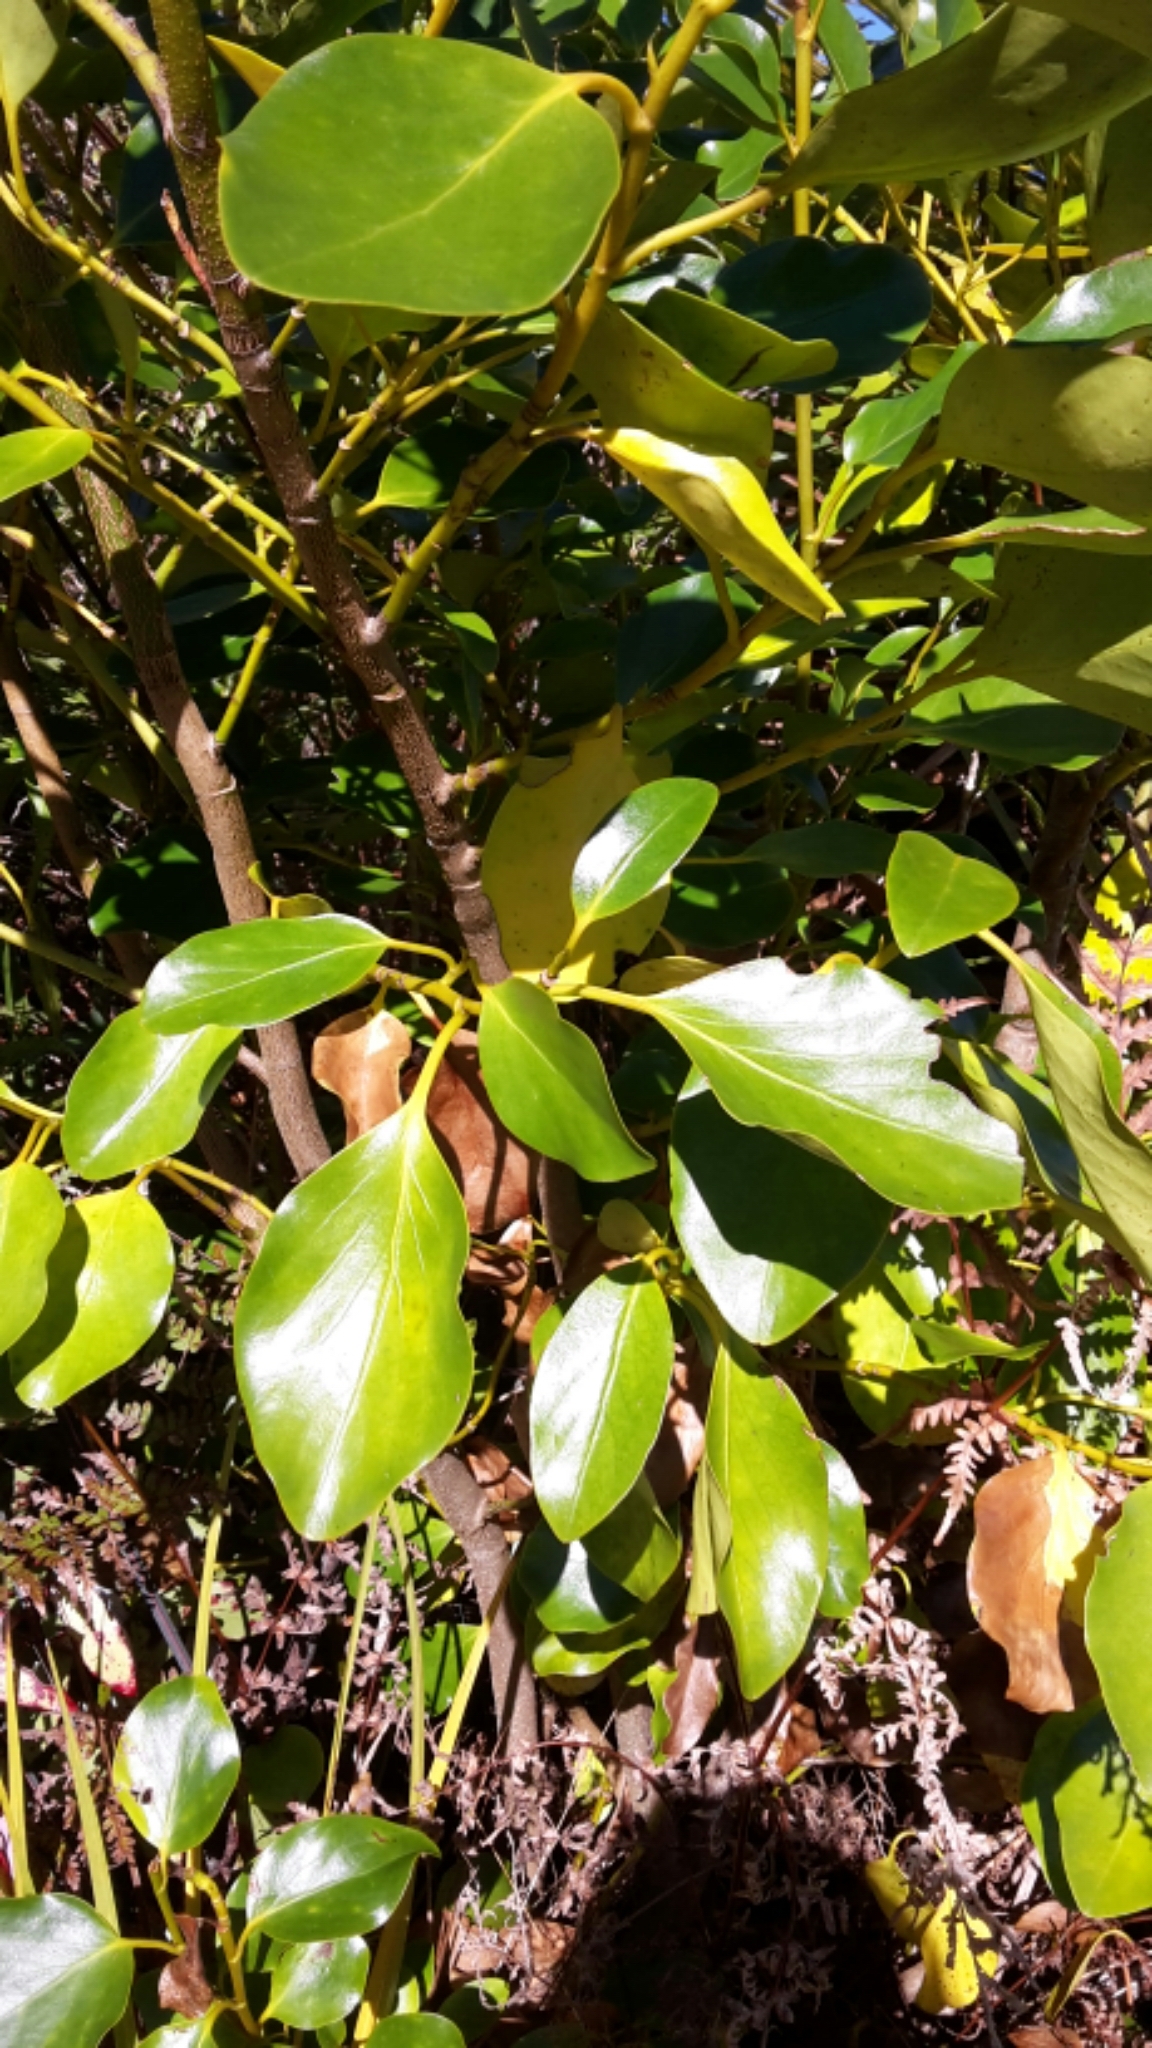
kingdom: Plantae
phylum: Tracheophyta
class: Magnoliopsida
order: Apiales
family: Griseliniaceae
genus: Griselinia
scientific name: Griselinia littoralis
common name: New zealand broadleaf
